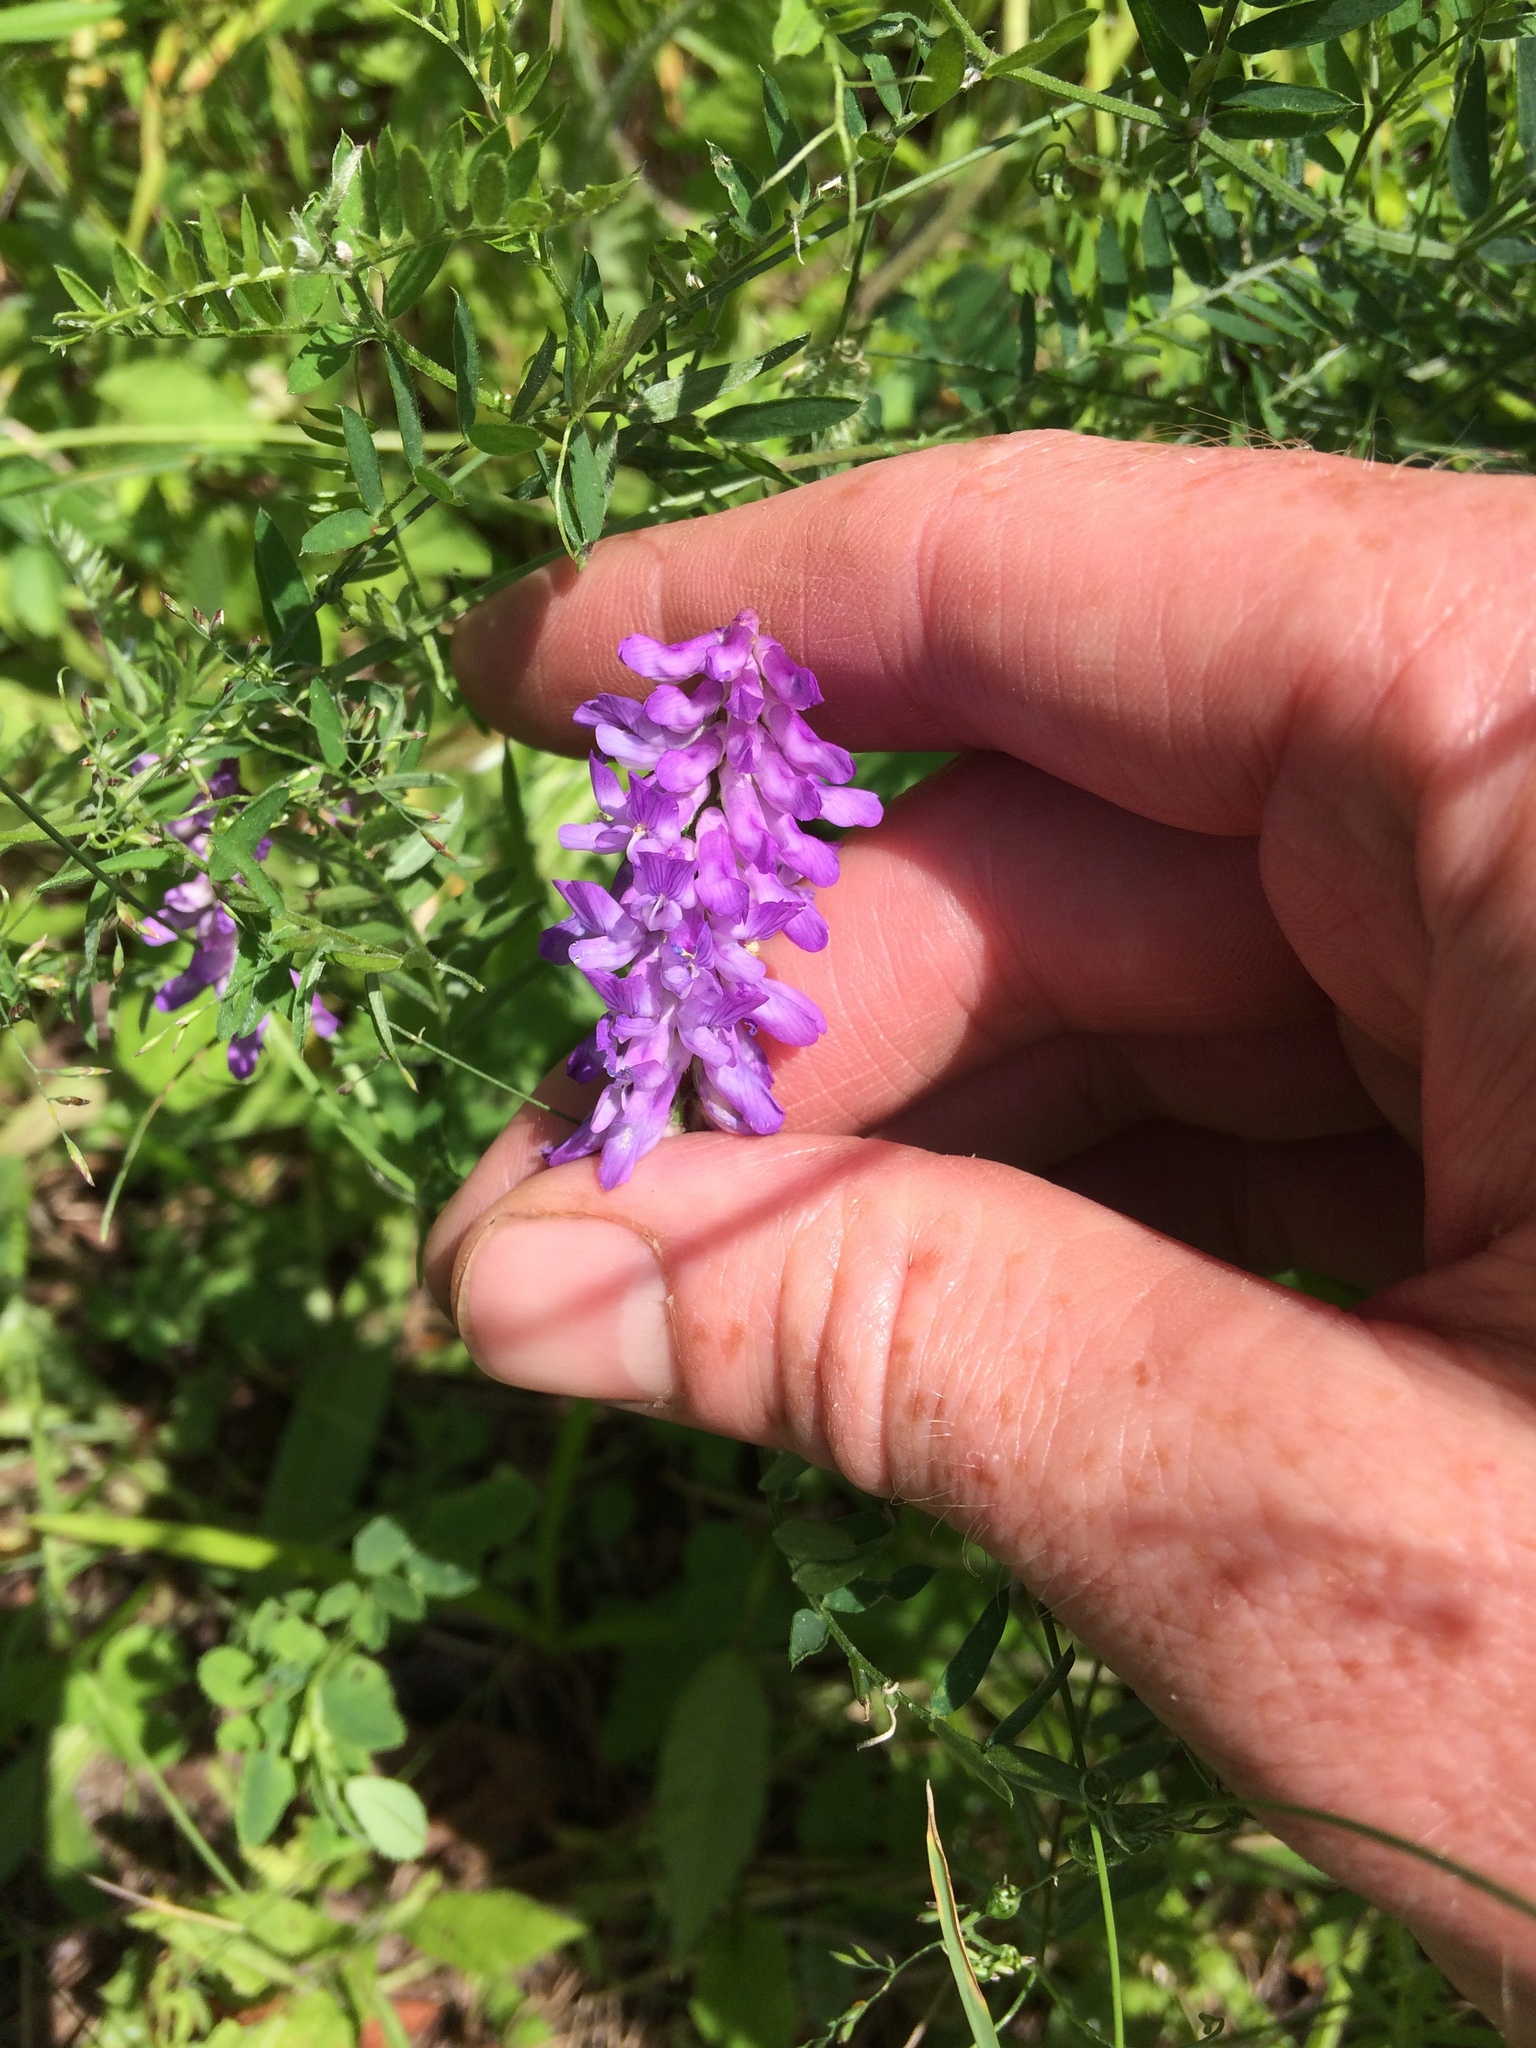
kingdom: Plantae
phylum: Tracheophyta
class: Magnoliopsida
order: Fabales
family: Fabaceae
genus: Vicia
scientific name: Vicia cracca
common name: Bird vetch
